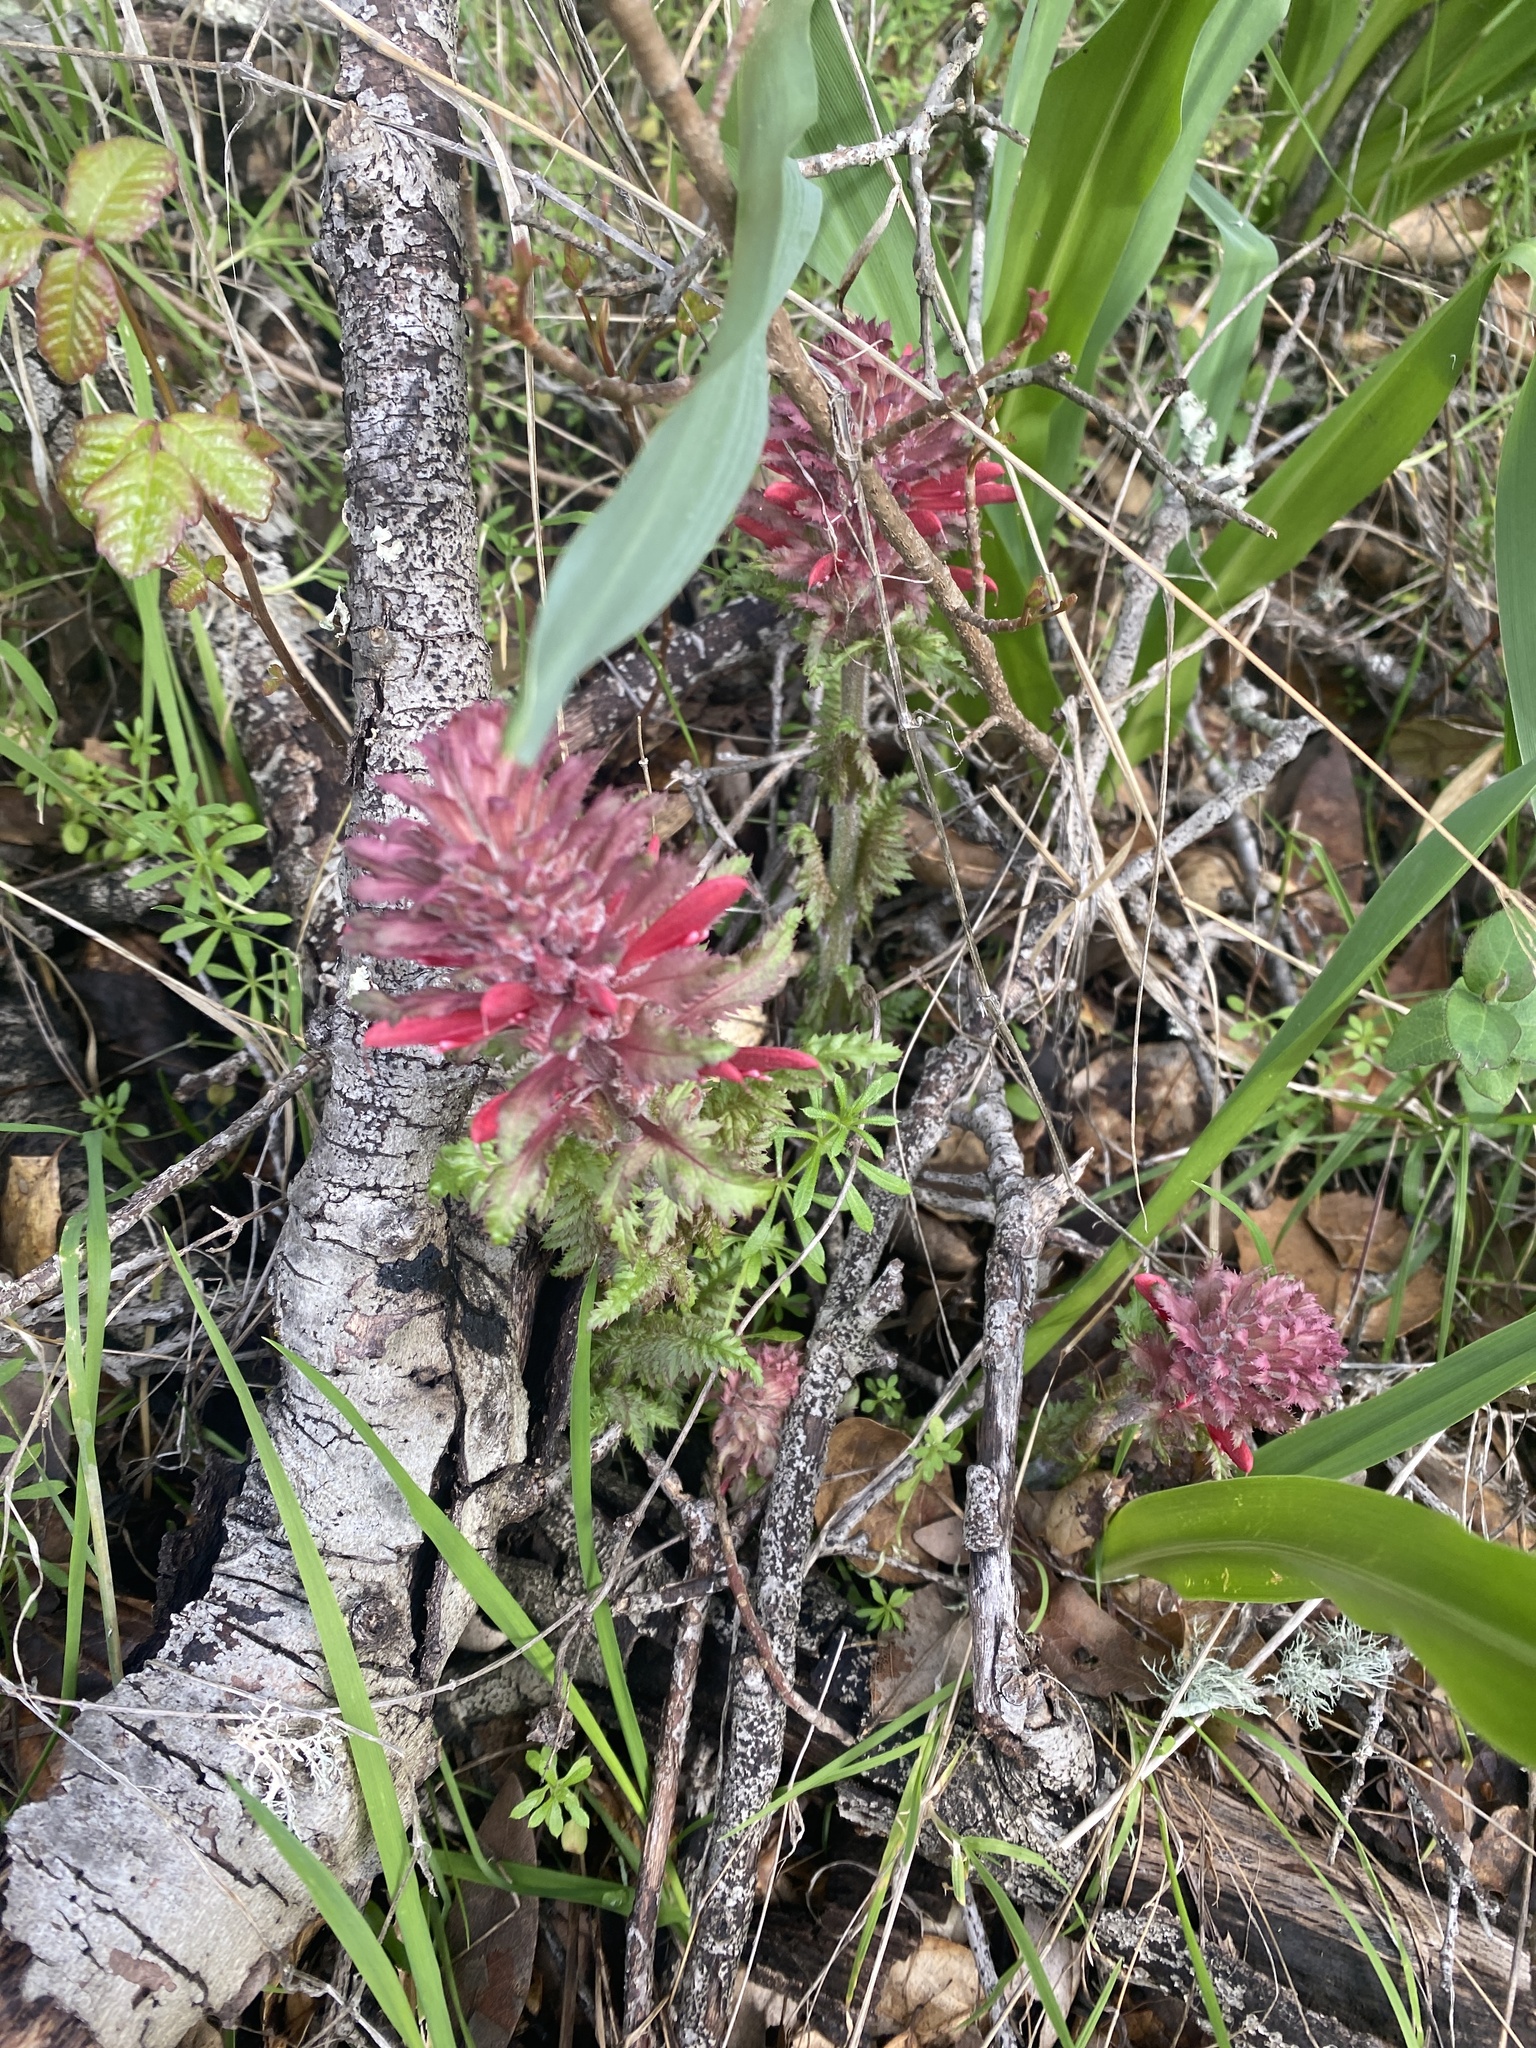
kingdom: Plantae
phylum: Tracheophyta
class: Magnoliopsida
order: Lamiales
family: Orobanchaceae
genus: Pedicularis
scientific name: Pedicularis densiflora
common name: Indian warrior
